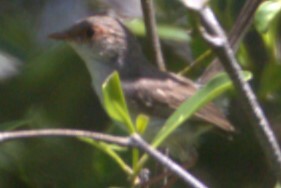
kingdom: Animalia
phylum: Chordata
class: Aves
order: Passeriformes
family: Maluridae
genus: Malurus
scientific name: Malurus cyaneus
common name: Superb fairywren
